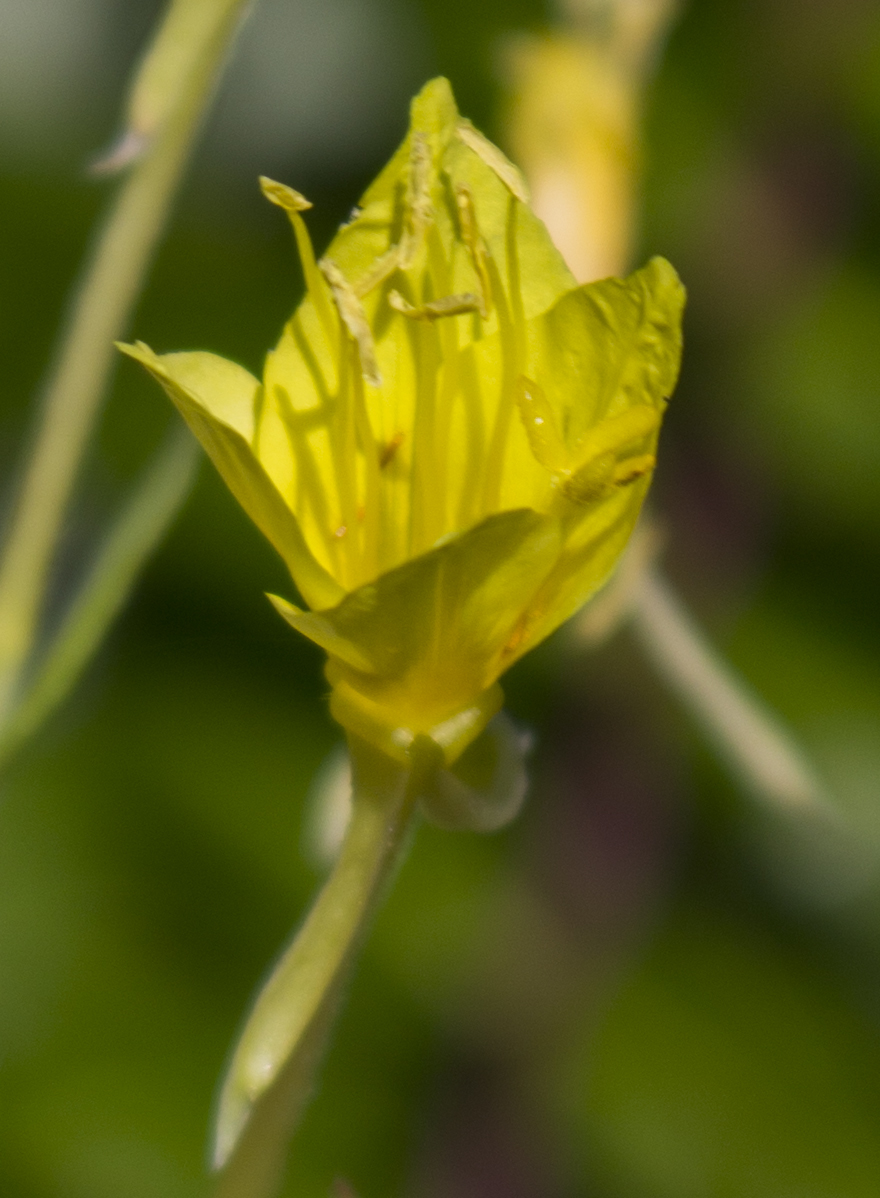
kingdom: Plantae
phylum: Tracheophyta
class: Magnoliopsida
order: Myrtales
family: Onagraceae
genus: Oenothera
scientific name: Oenothera clelandii
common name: Cleland's evening-primrose
